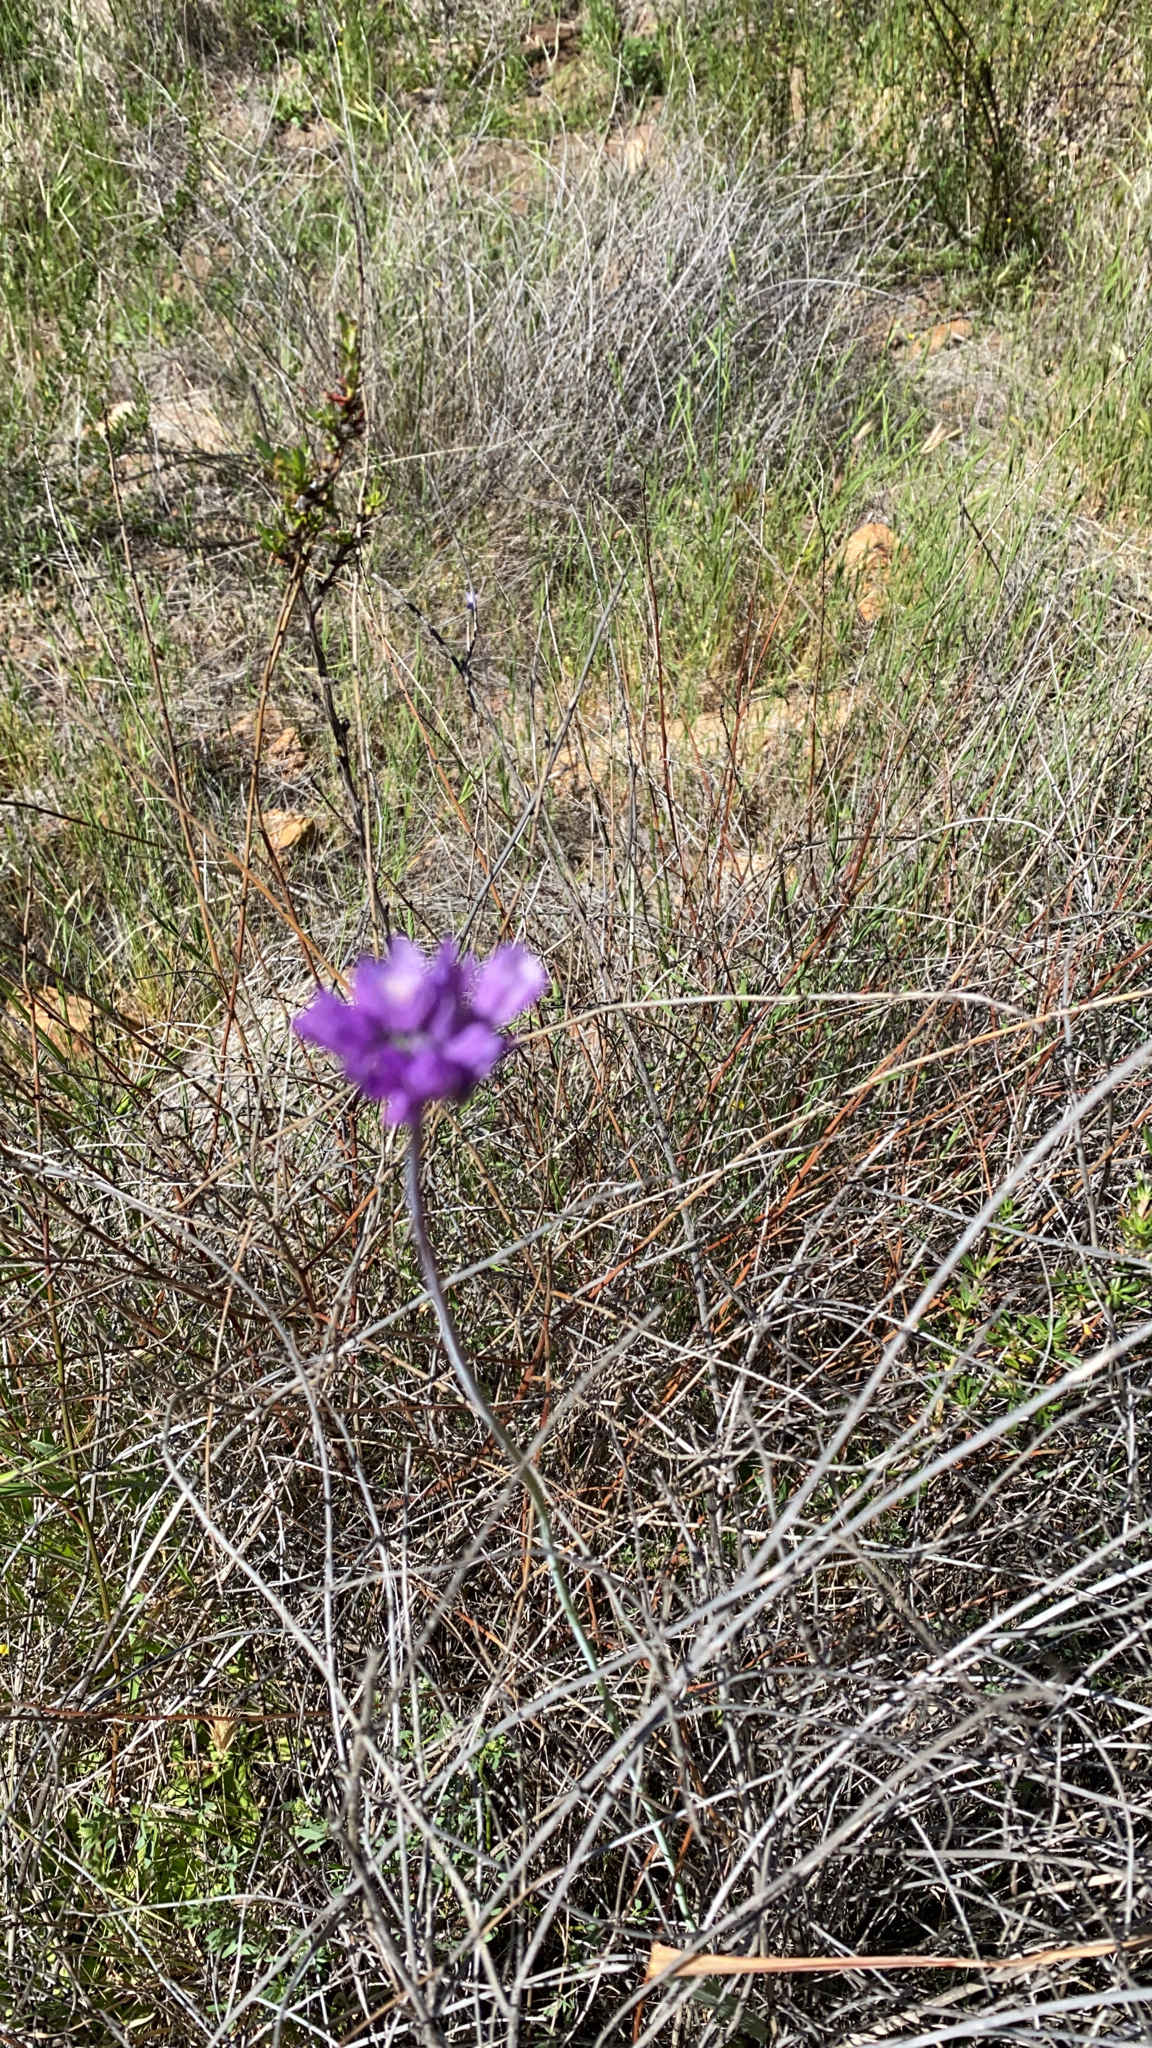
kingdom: Plantae
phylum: Tracheophyta
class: Liliopsida
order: Asparagales
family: Asparagaceae
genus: Dipterostemon
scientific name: Dipterostemon capitatus
